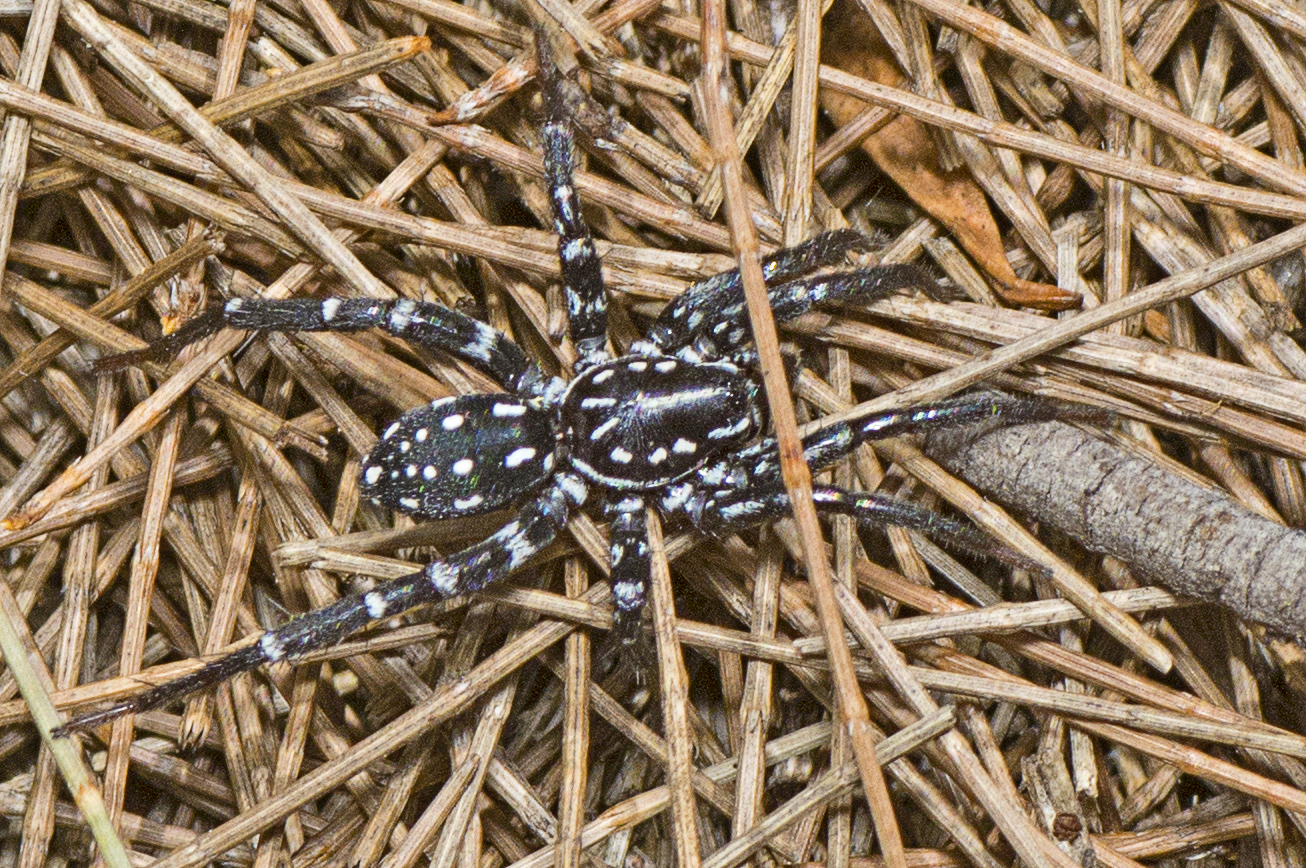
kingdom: Animalia
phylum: Arthropoda
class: Arachnida
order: Araneae
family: Corinnidae
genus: Nyssus
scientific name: Nyssus albopunctatus
